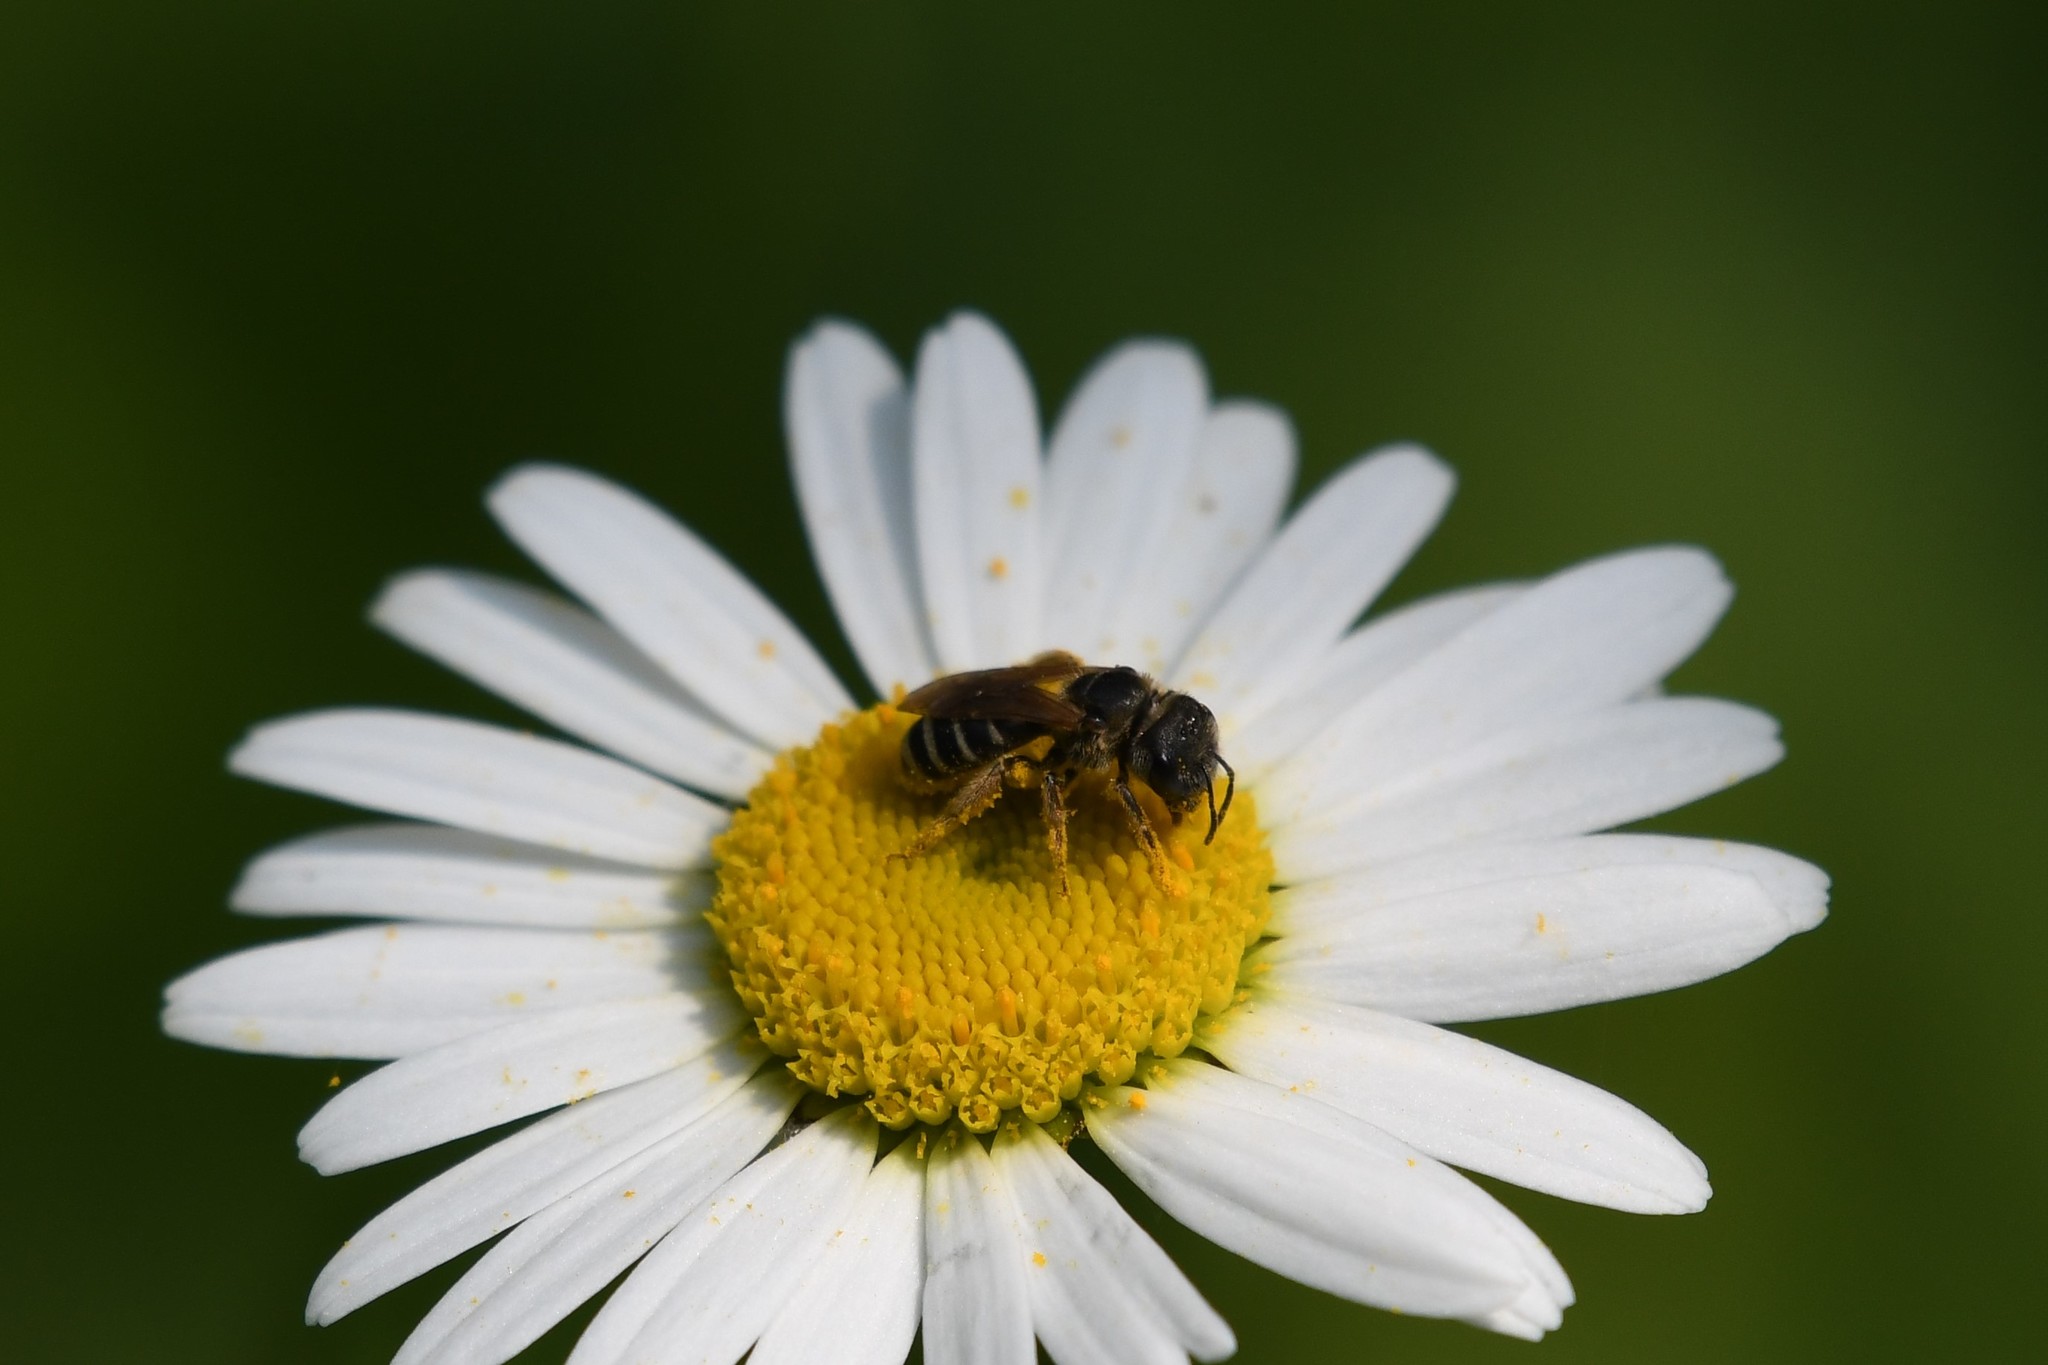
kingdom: Animalia
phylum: Arthropoda
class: Insecta
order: Hymenoptera
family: Halictidae
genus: Halictus
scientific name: Halictus ligatus
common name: Ligated furrow bee
